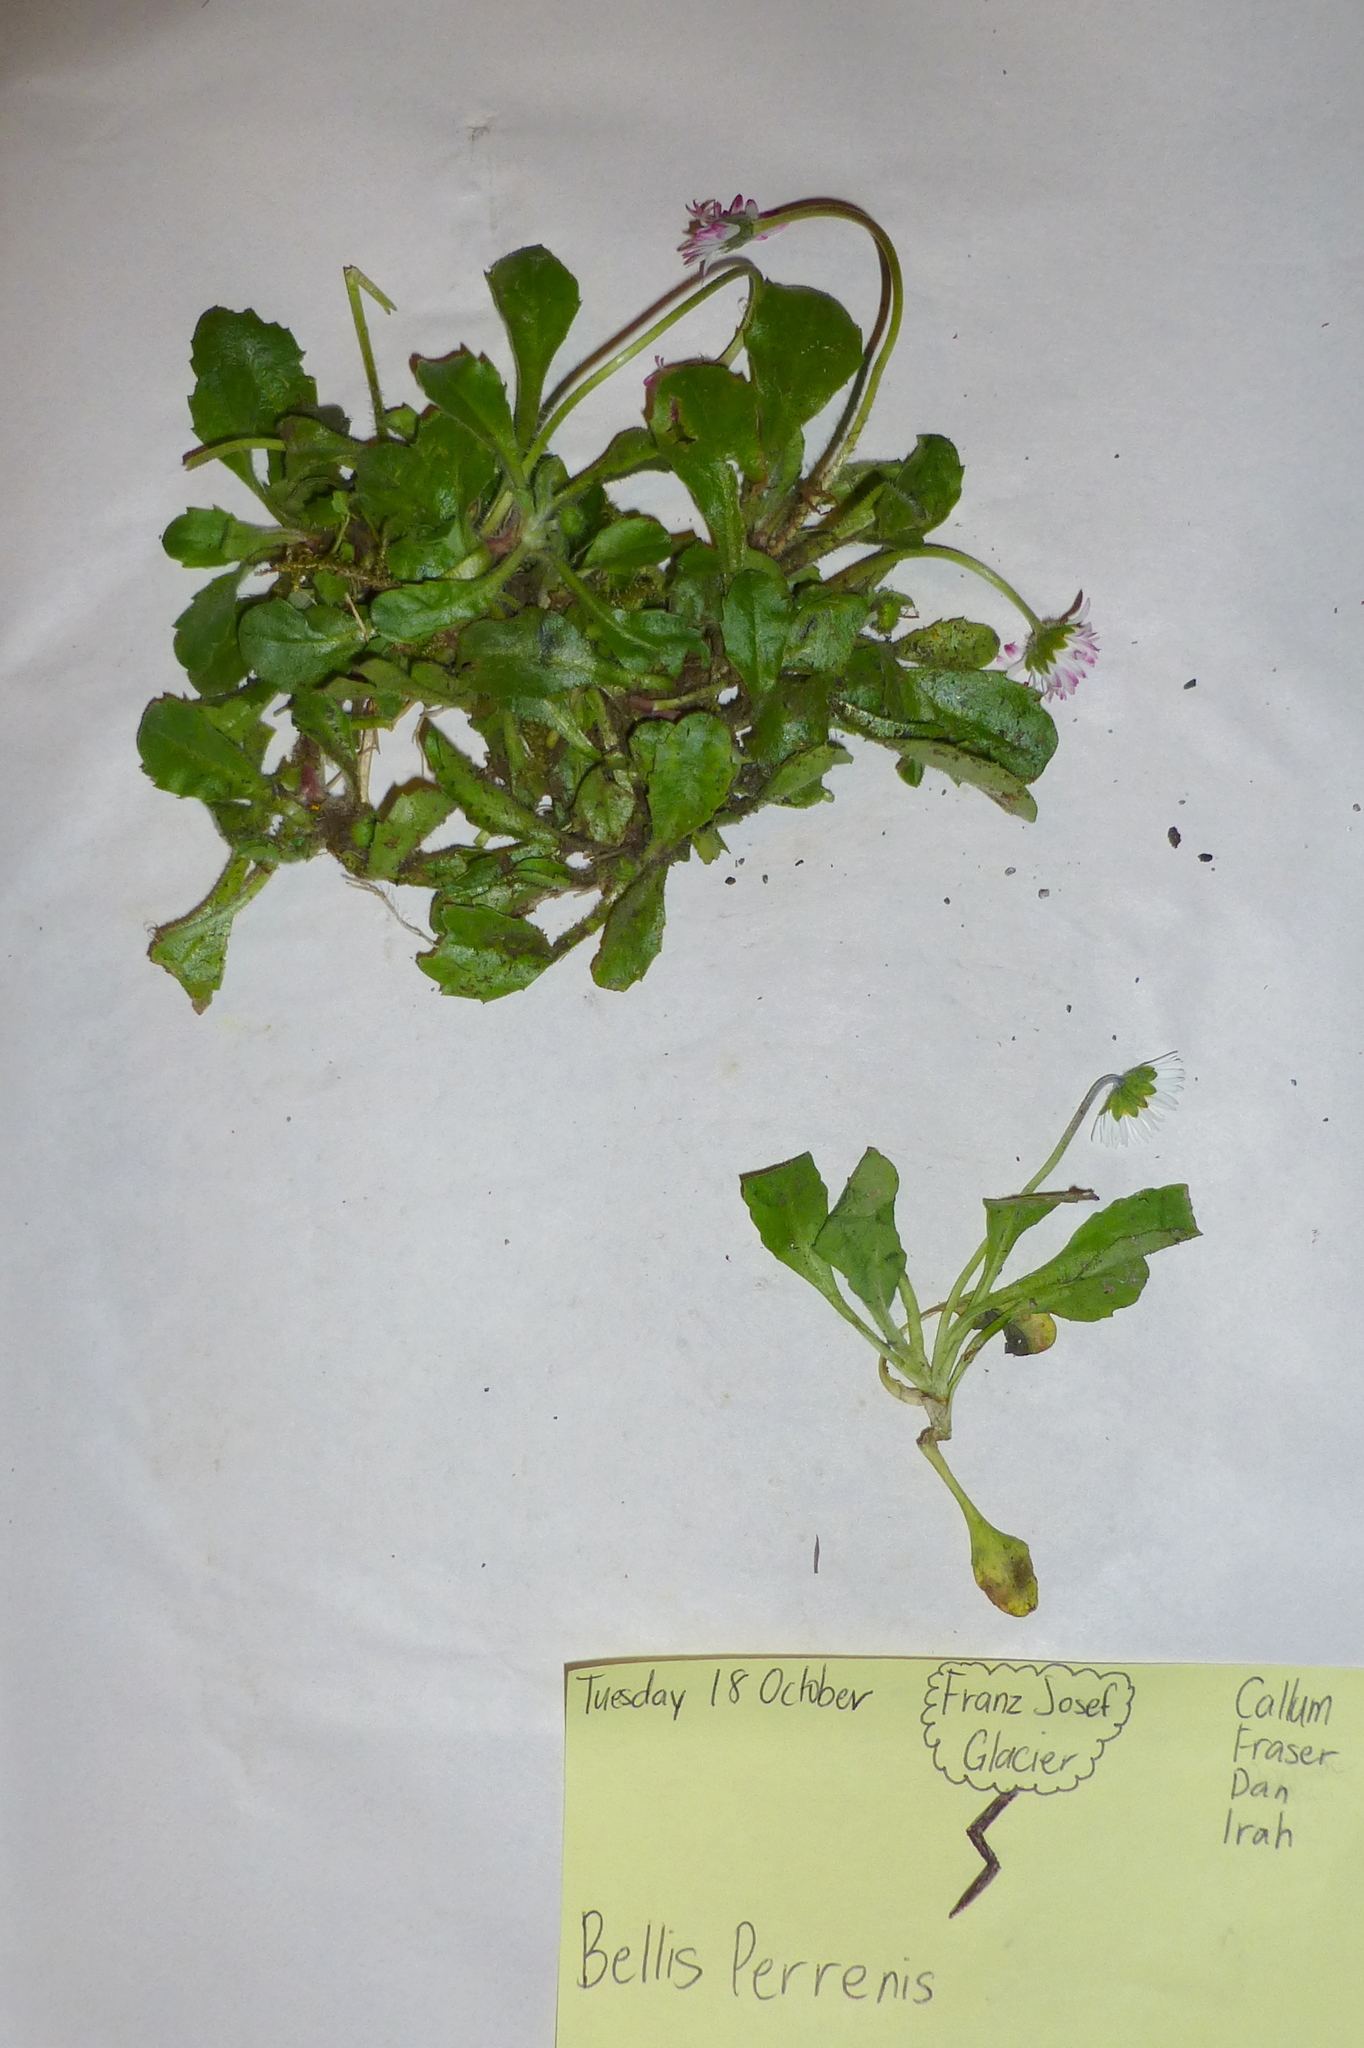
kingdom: Plantae
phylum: Tracheophyta
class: Magnoliopsida
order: Asterales
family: Asteraceae
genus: Bellis
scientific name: Bellis perennis
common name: Lawndaisy
